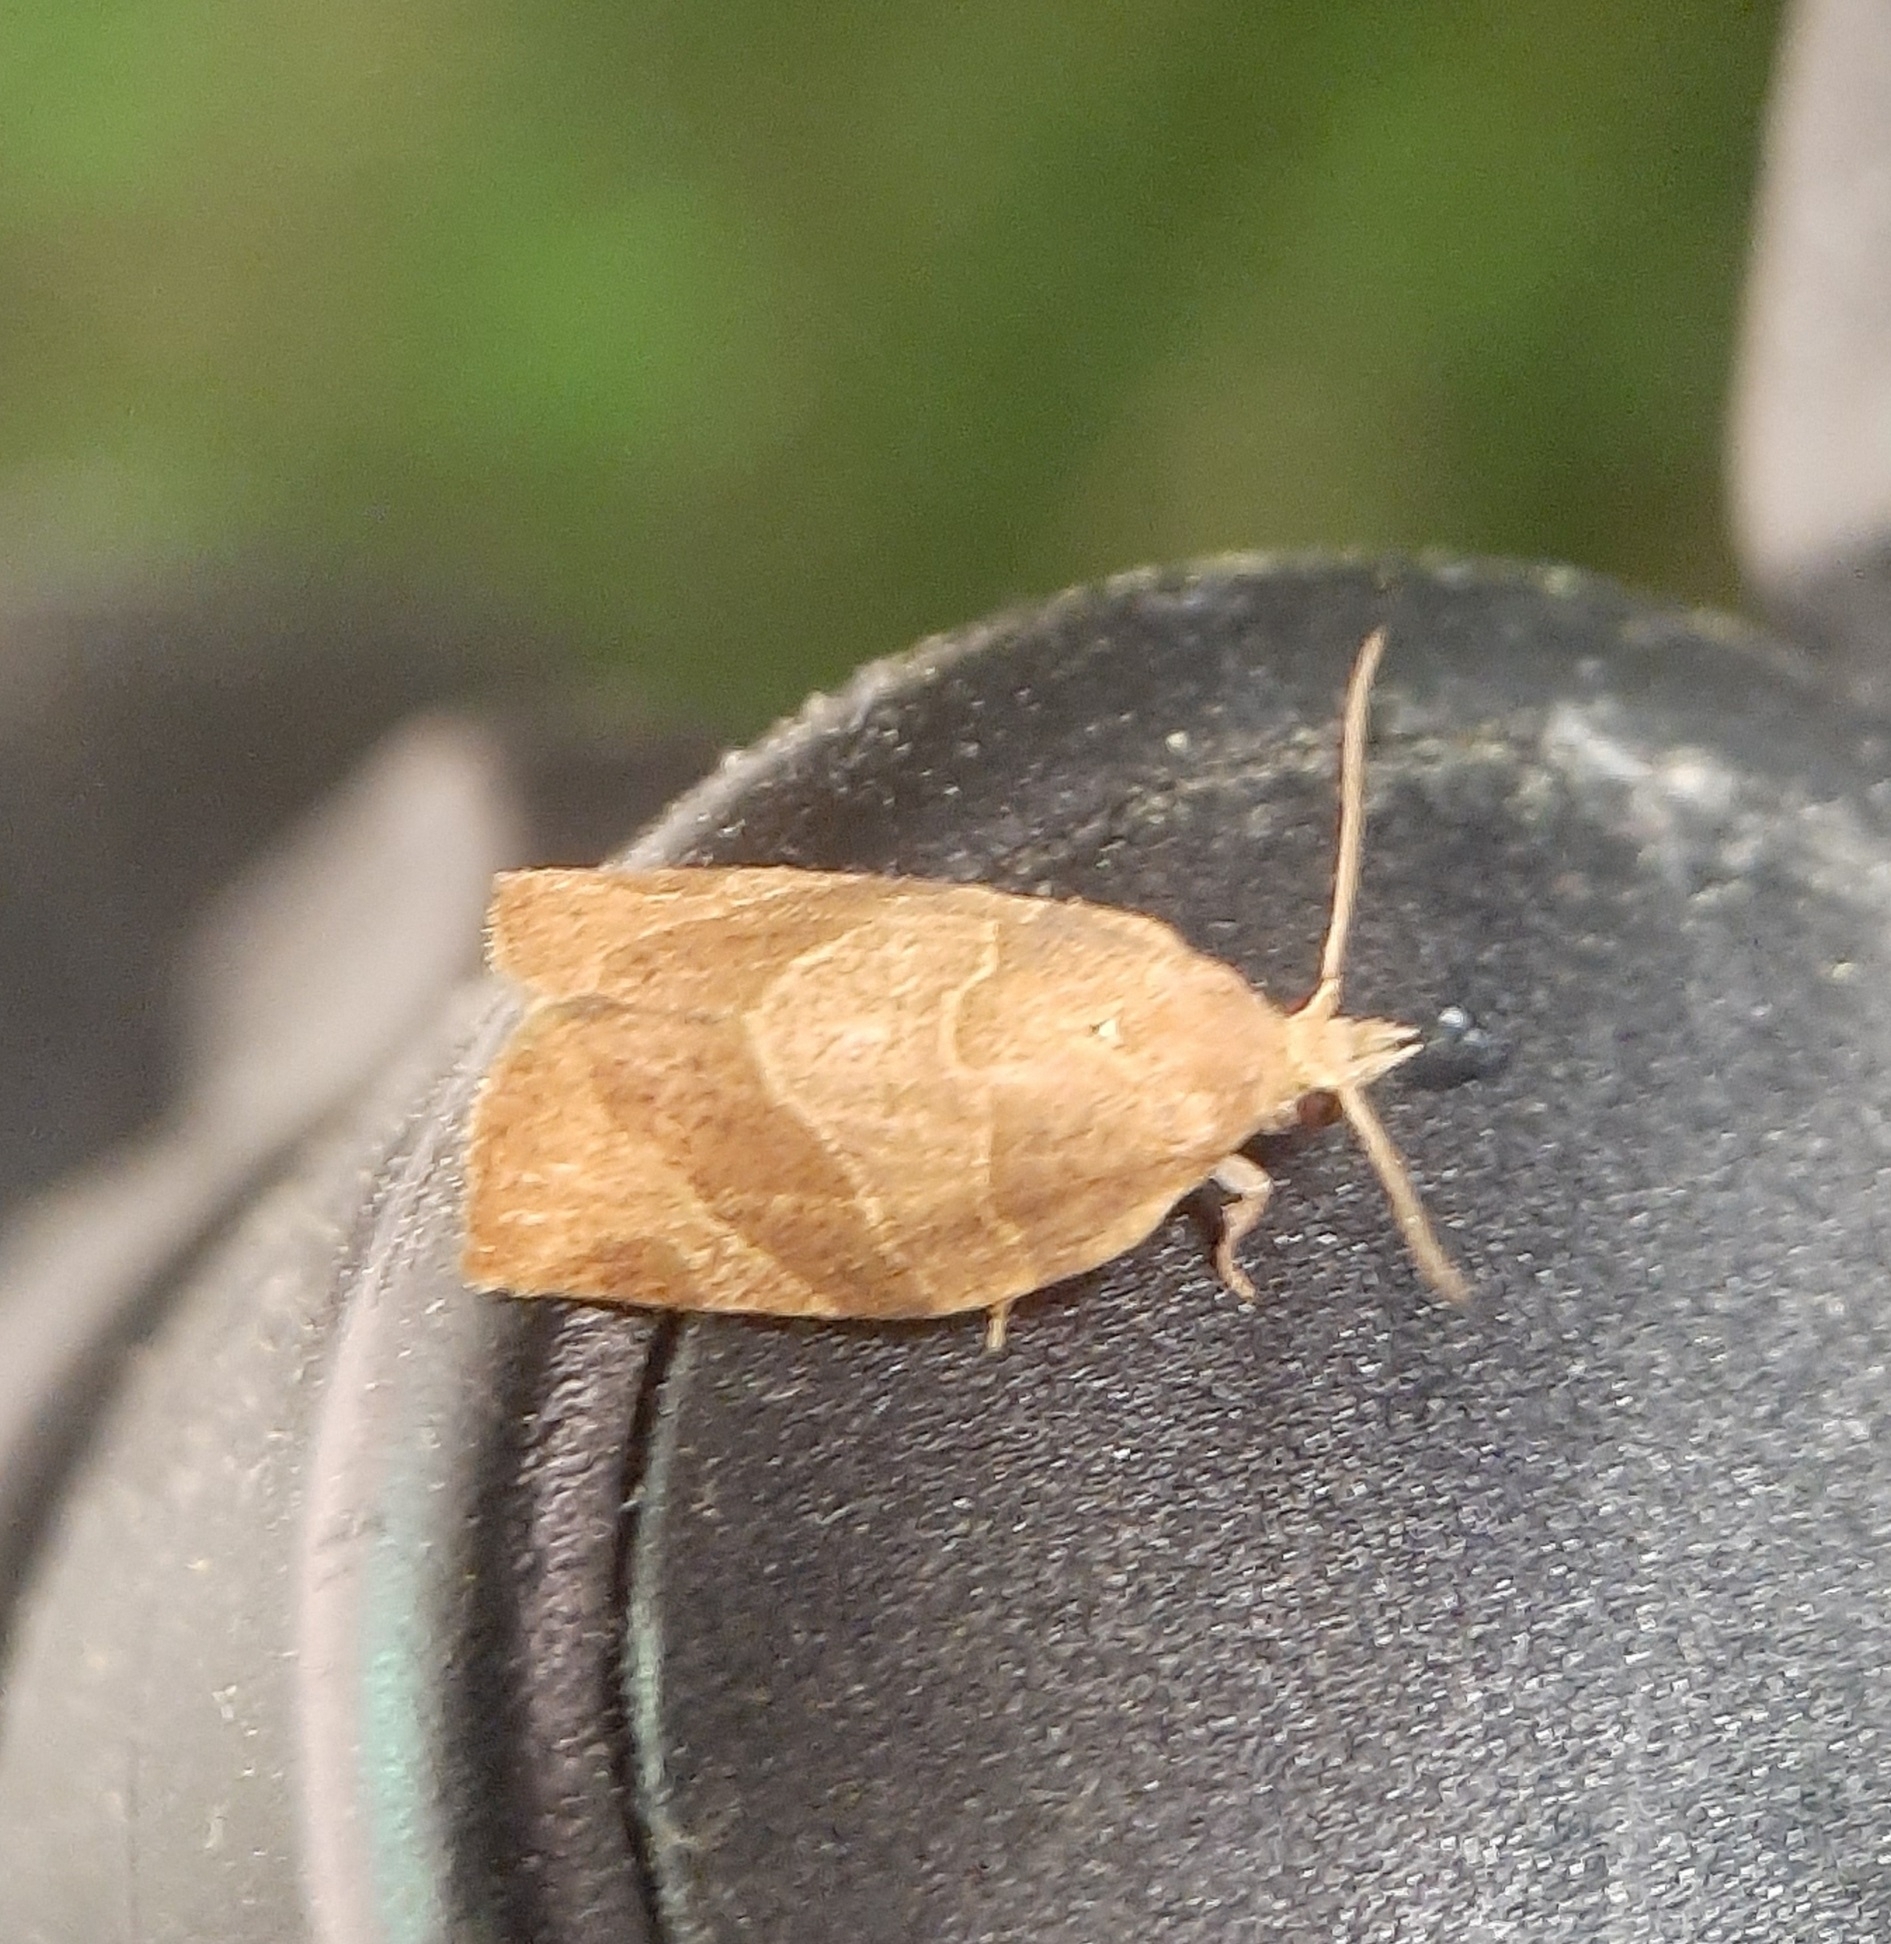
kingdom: Animalia
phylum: Arthropoda
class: Insecta
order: Lepidoptera
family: Tortricidae
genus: Pandemis
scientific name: Pandemis limitata
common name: Three-lined leafroller moth
